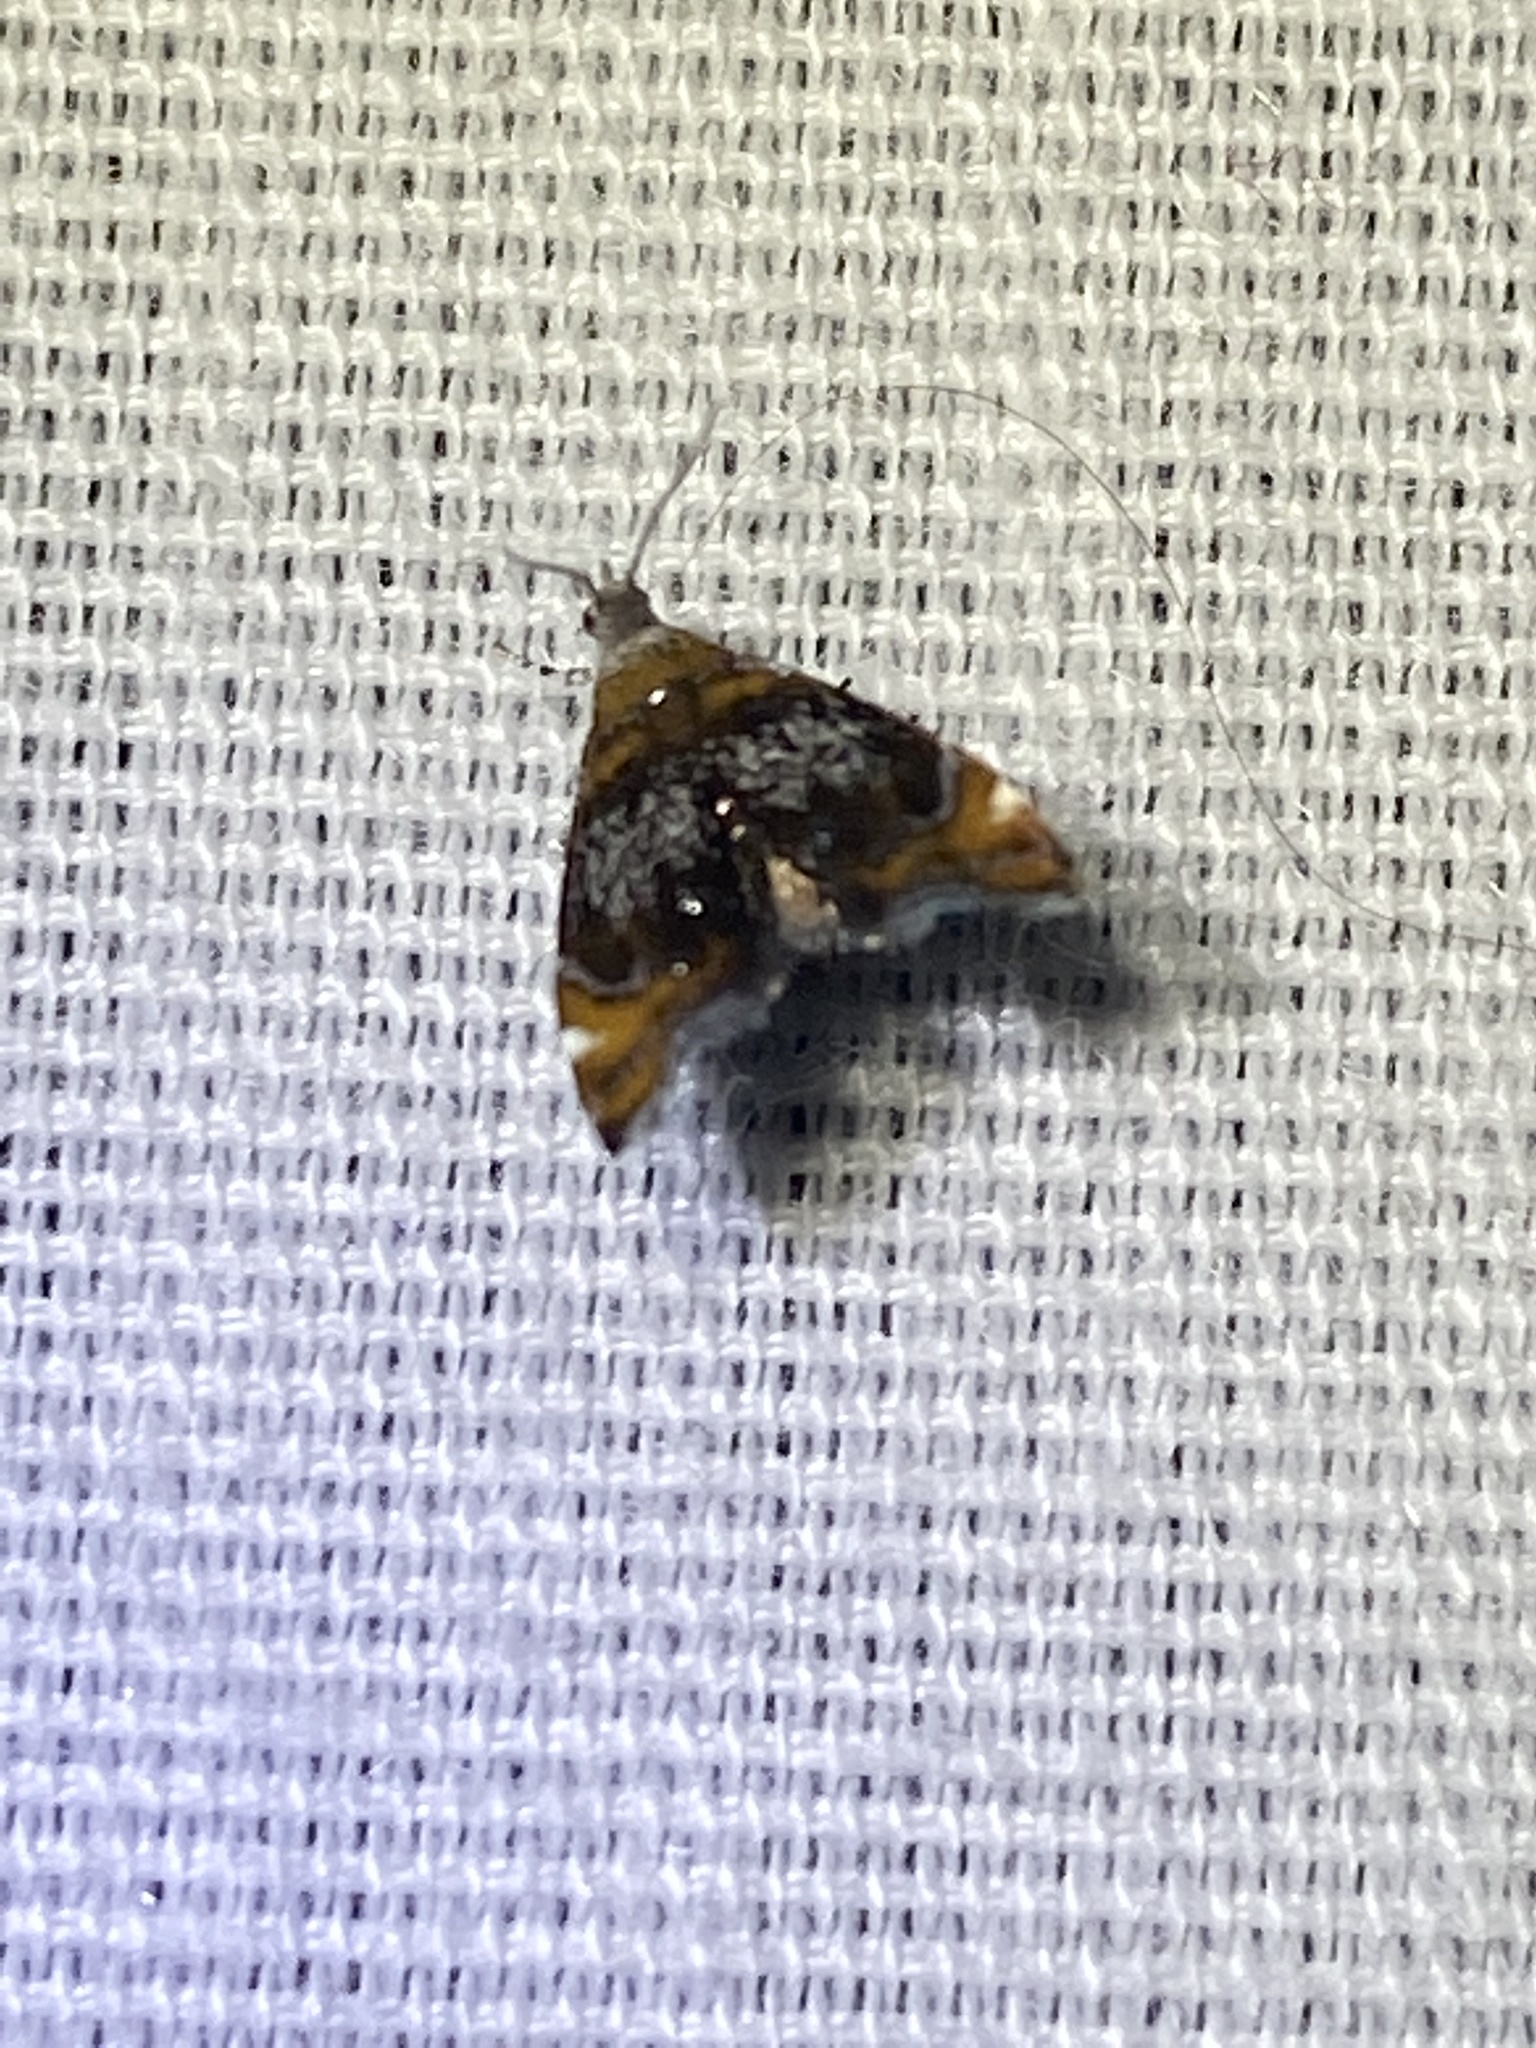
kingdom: Animalia
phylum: Arthropoda
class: Insecta
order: Lepidoptera
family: Choreutidae
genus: Prochoreutis
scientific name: Prochoreutis inflatella
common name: Skullcap skeletonizer moth
